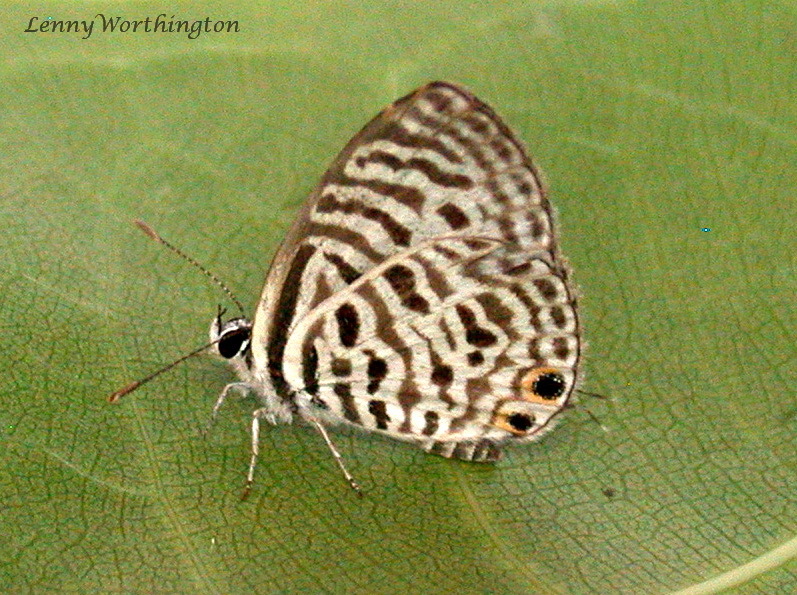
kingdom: Animalia
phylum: Arthropoda
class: Insecta
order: Lepidoptera
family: Lycaenidae
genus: Leptotes
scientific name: Leptotes plinius
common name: Zebra blue
